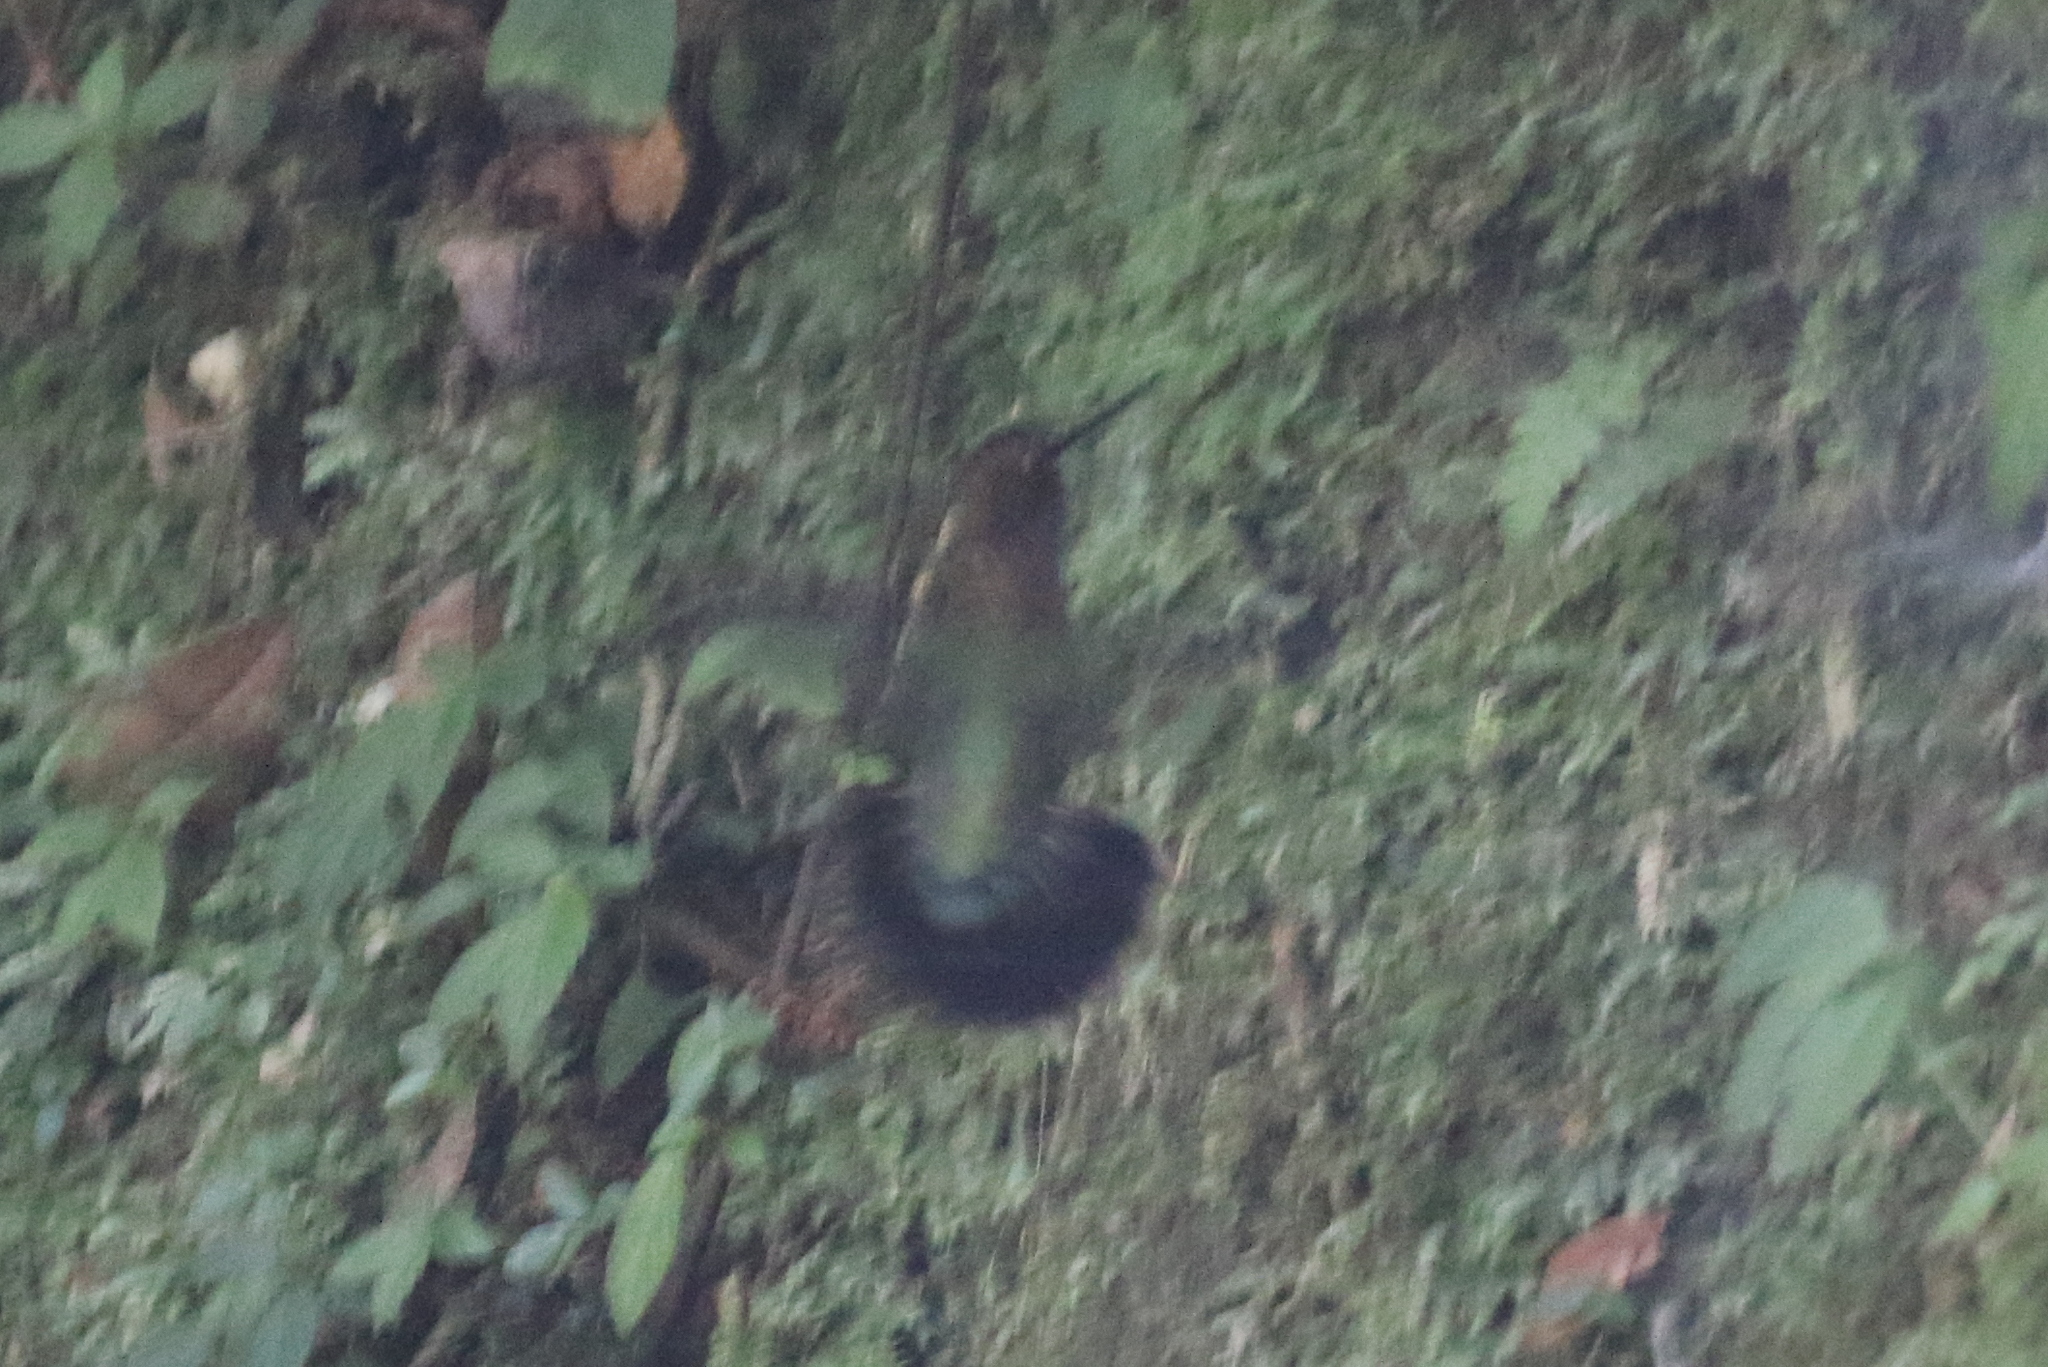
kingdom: Animalia
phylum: Chordata
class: Aves
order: Apodiformes
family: Trochilidae
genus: Haplophaedia
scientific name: Haplophaedia aureliae
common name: Greenish puffleg
